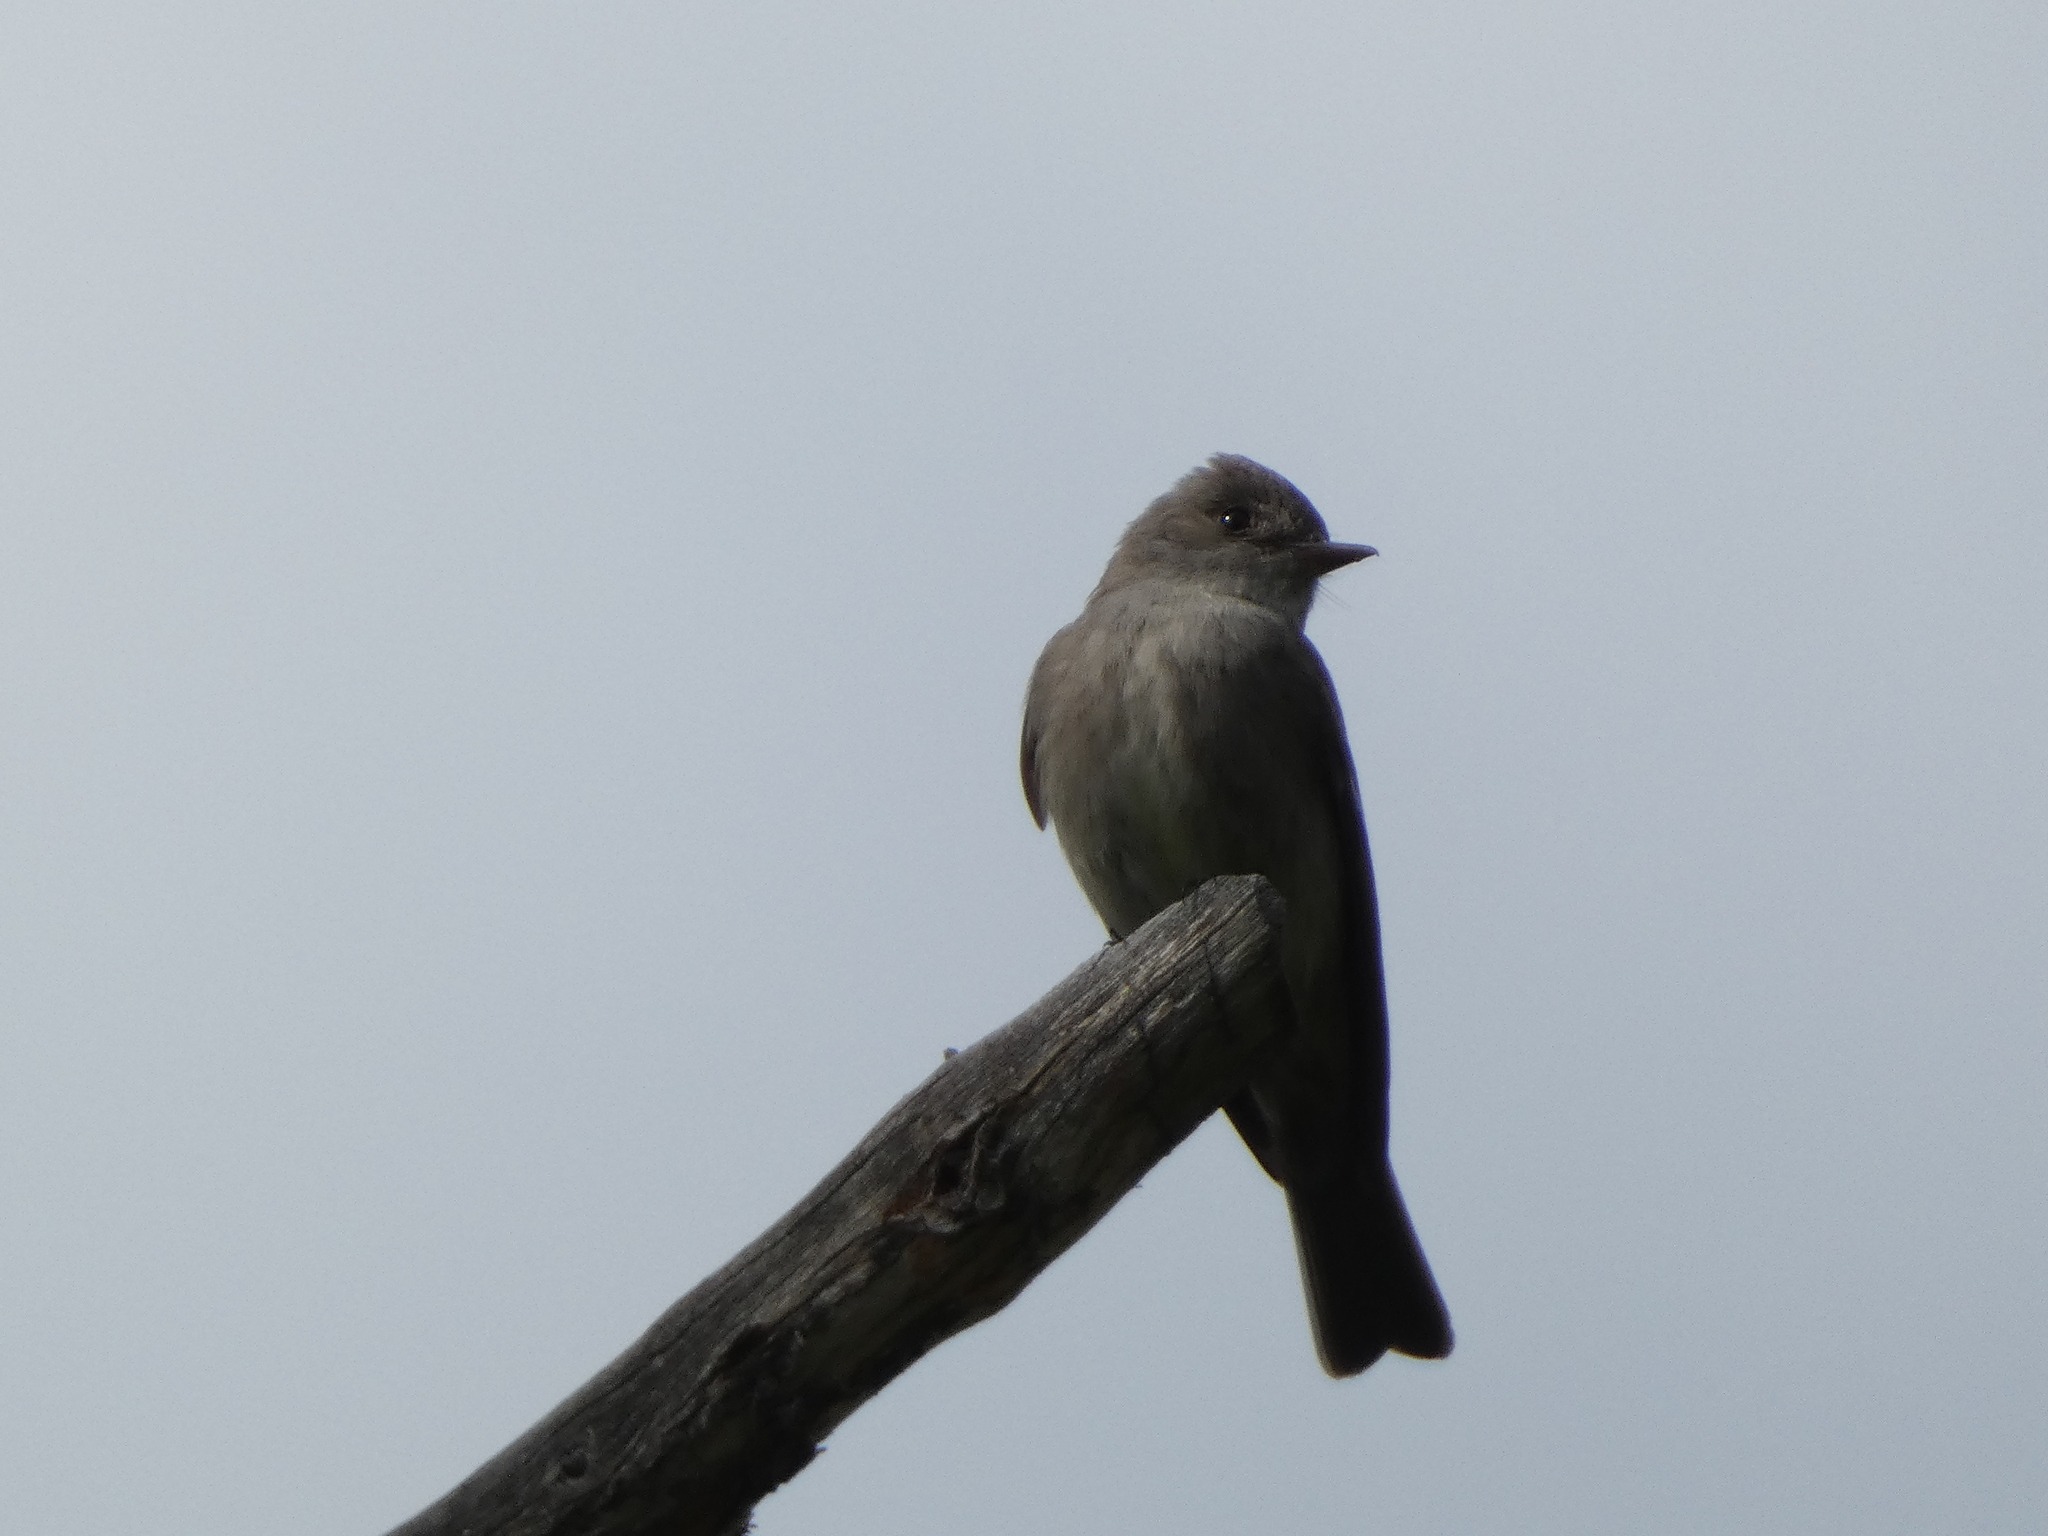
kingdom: Animalia
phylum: Chordata
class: Aves
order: Passeriformes
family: Tyrannidae
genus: Contopus
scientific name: Contopus sordidulus
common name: Western wood-pewee
